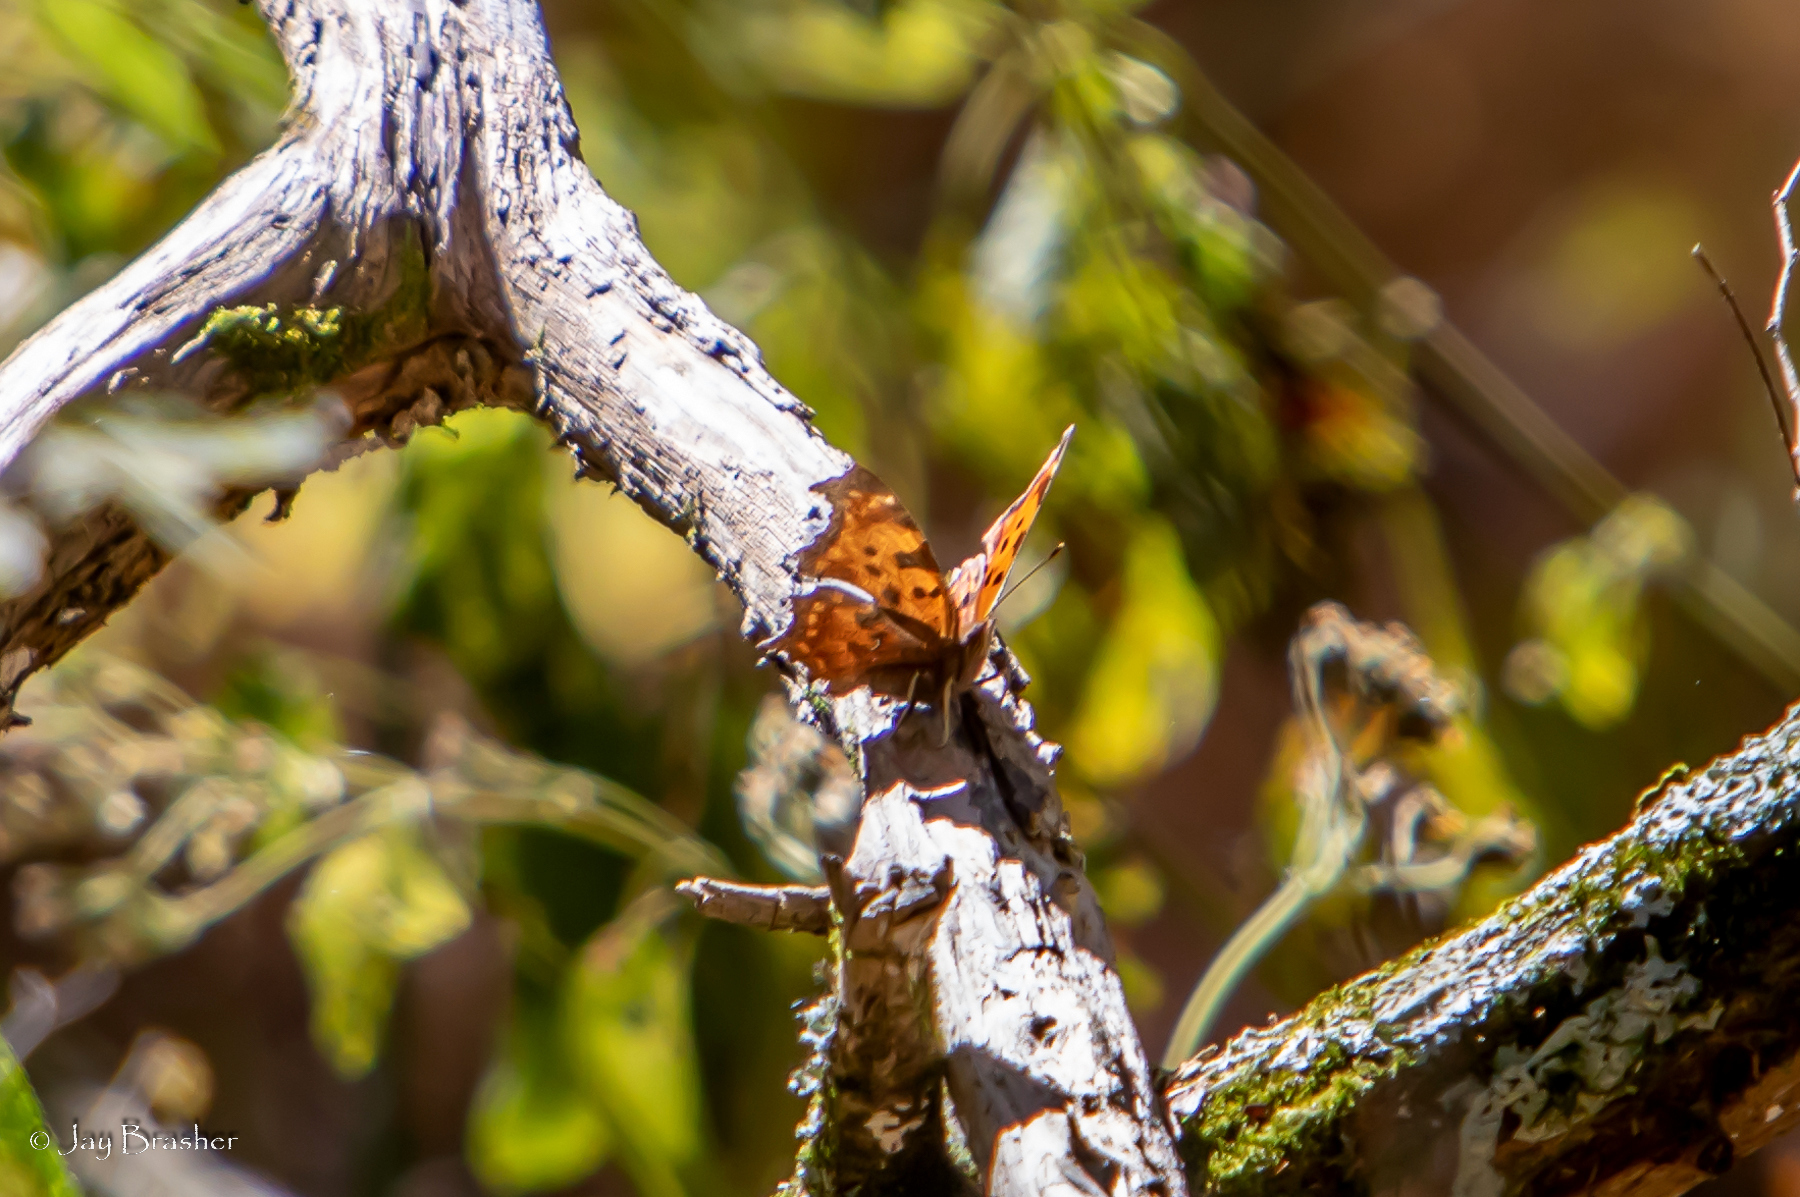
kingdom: Animalia
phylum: Arthropoda
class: Insecta
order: Lepidoptera
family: Nymphalidae
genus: Polygonia
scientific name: Polygonia comma
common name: Eastern comma
